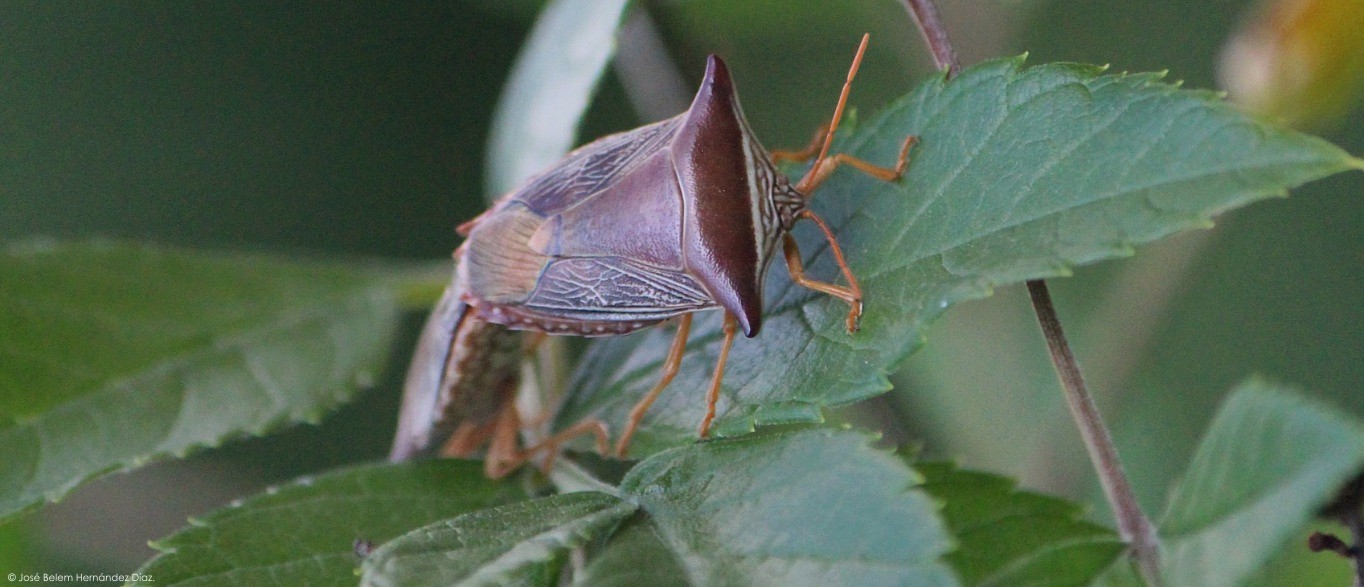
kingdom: Animalia
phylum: Arthropoda
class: Insecta
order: Hemiptera
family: Pentatomidae
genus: Edessa
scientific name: Edessa reticulata
